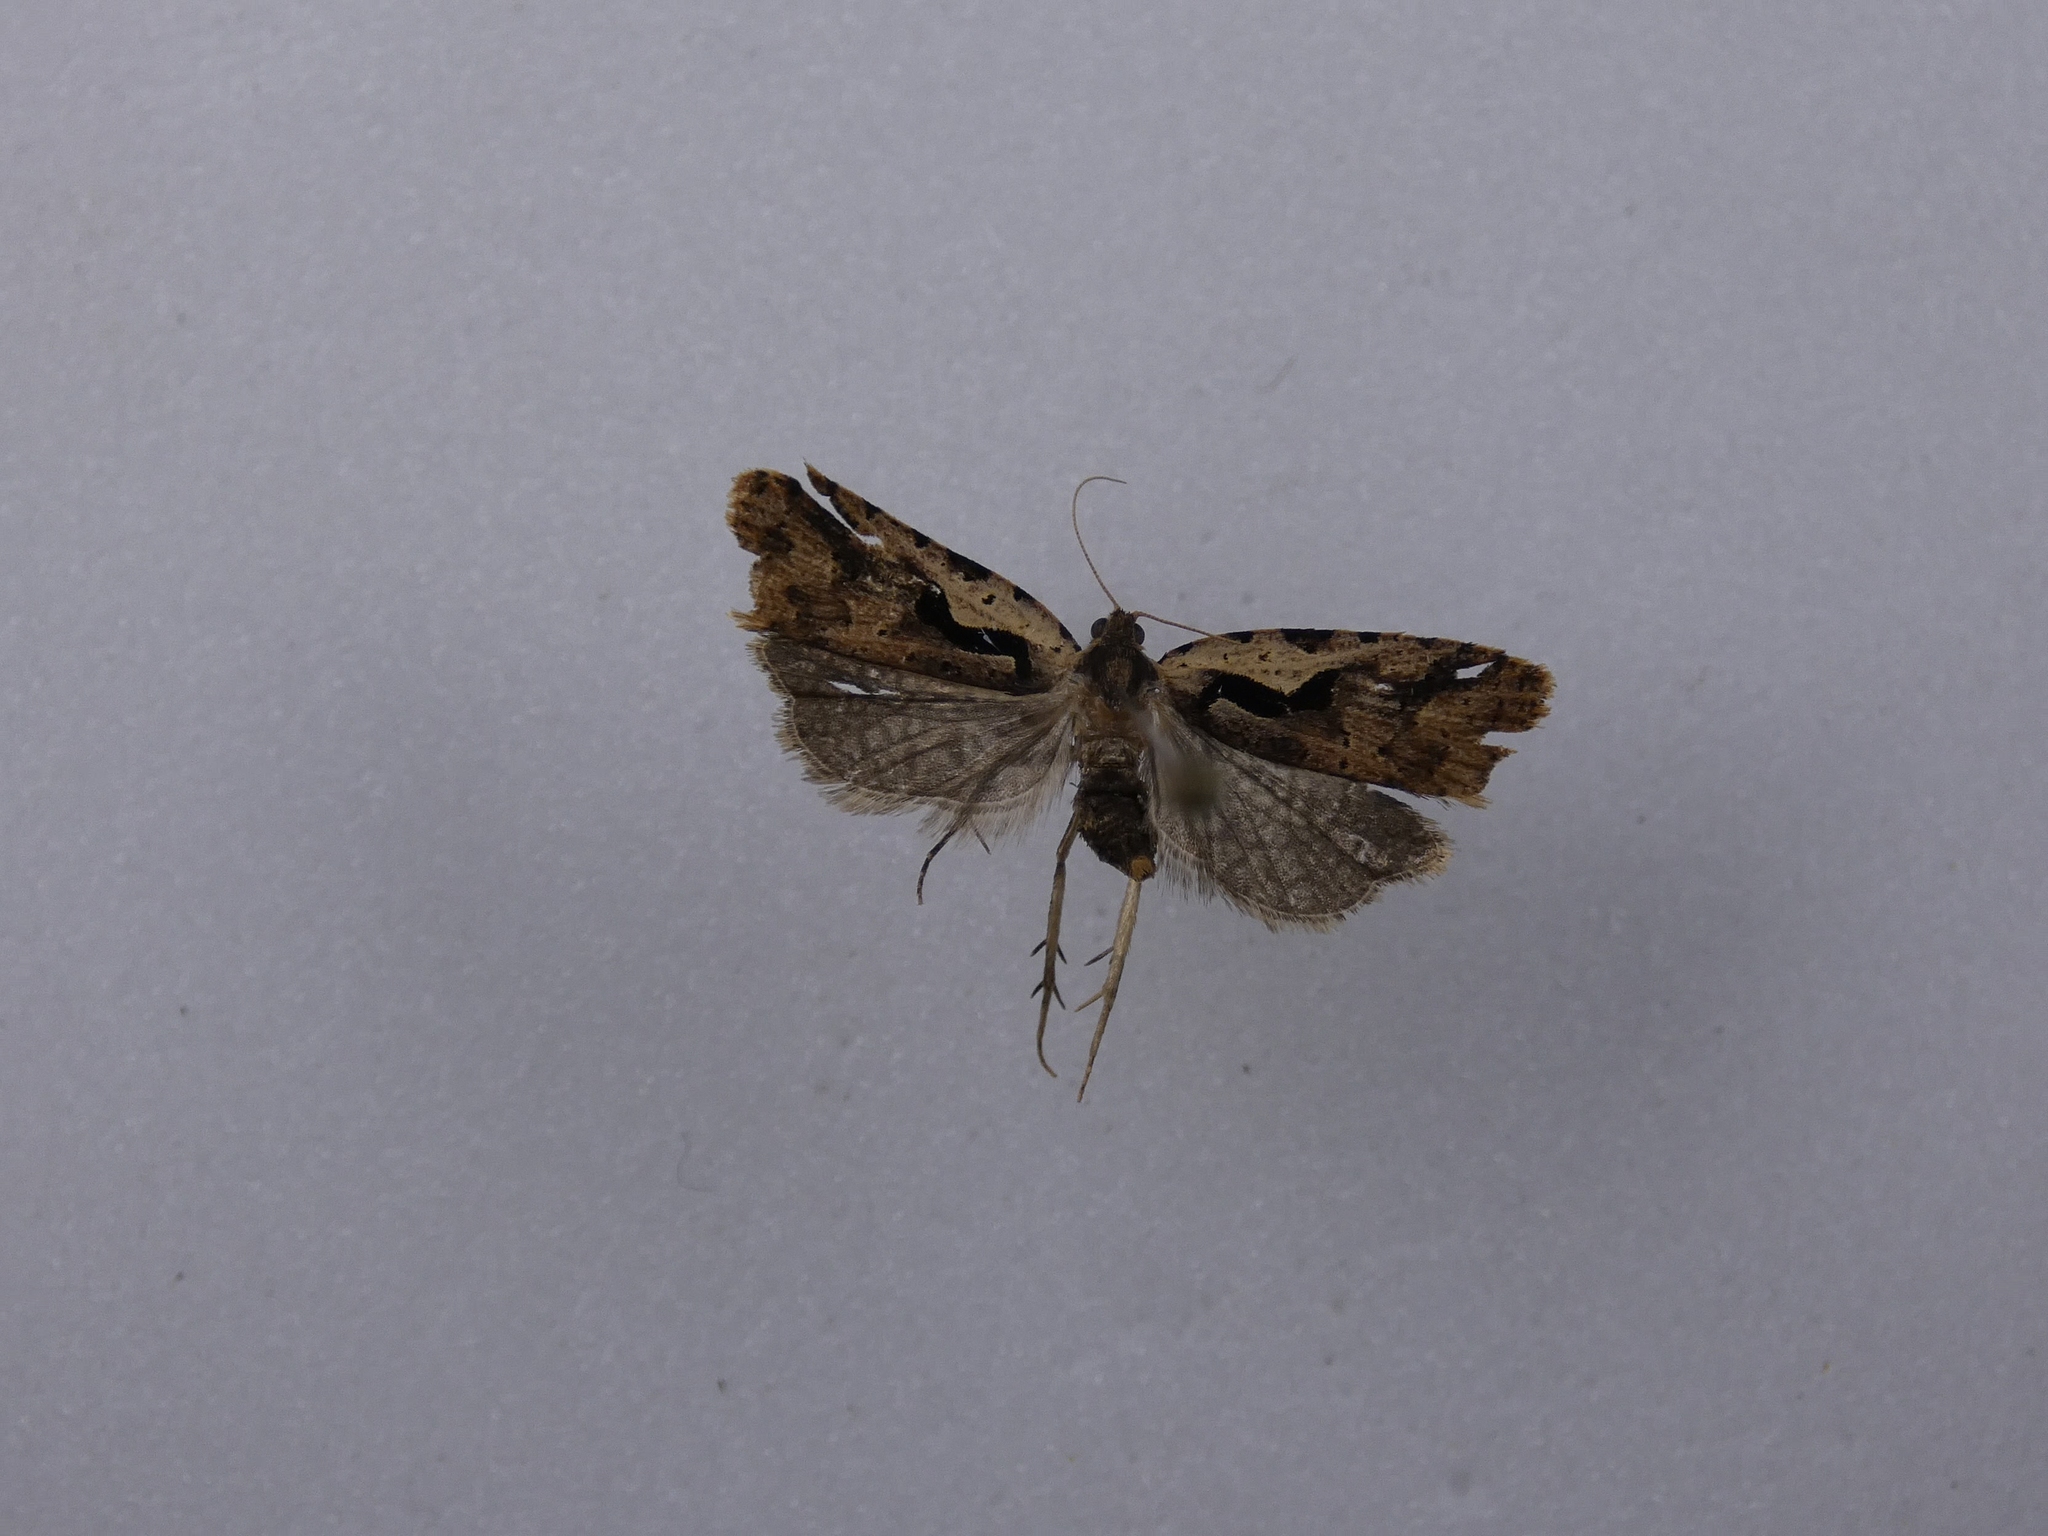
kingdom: Animalia
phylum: Arthropoda
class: Insecta
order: Lepidoptera
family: Tortricidae
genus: Cnephasia
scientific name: Cnephasia jactatana
